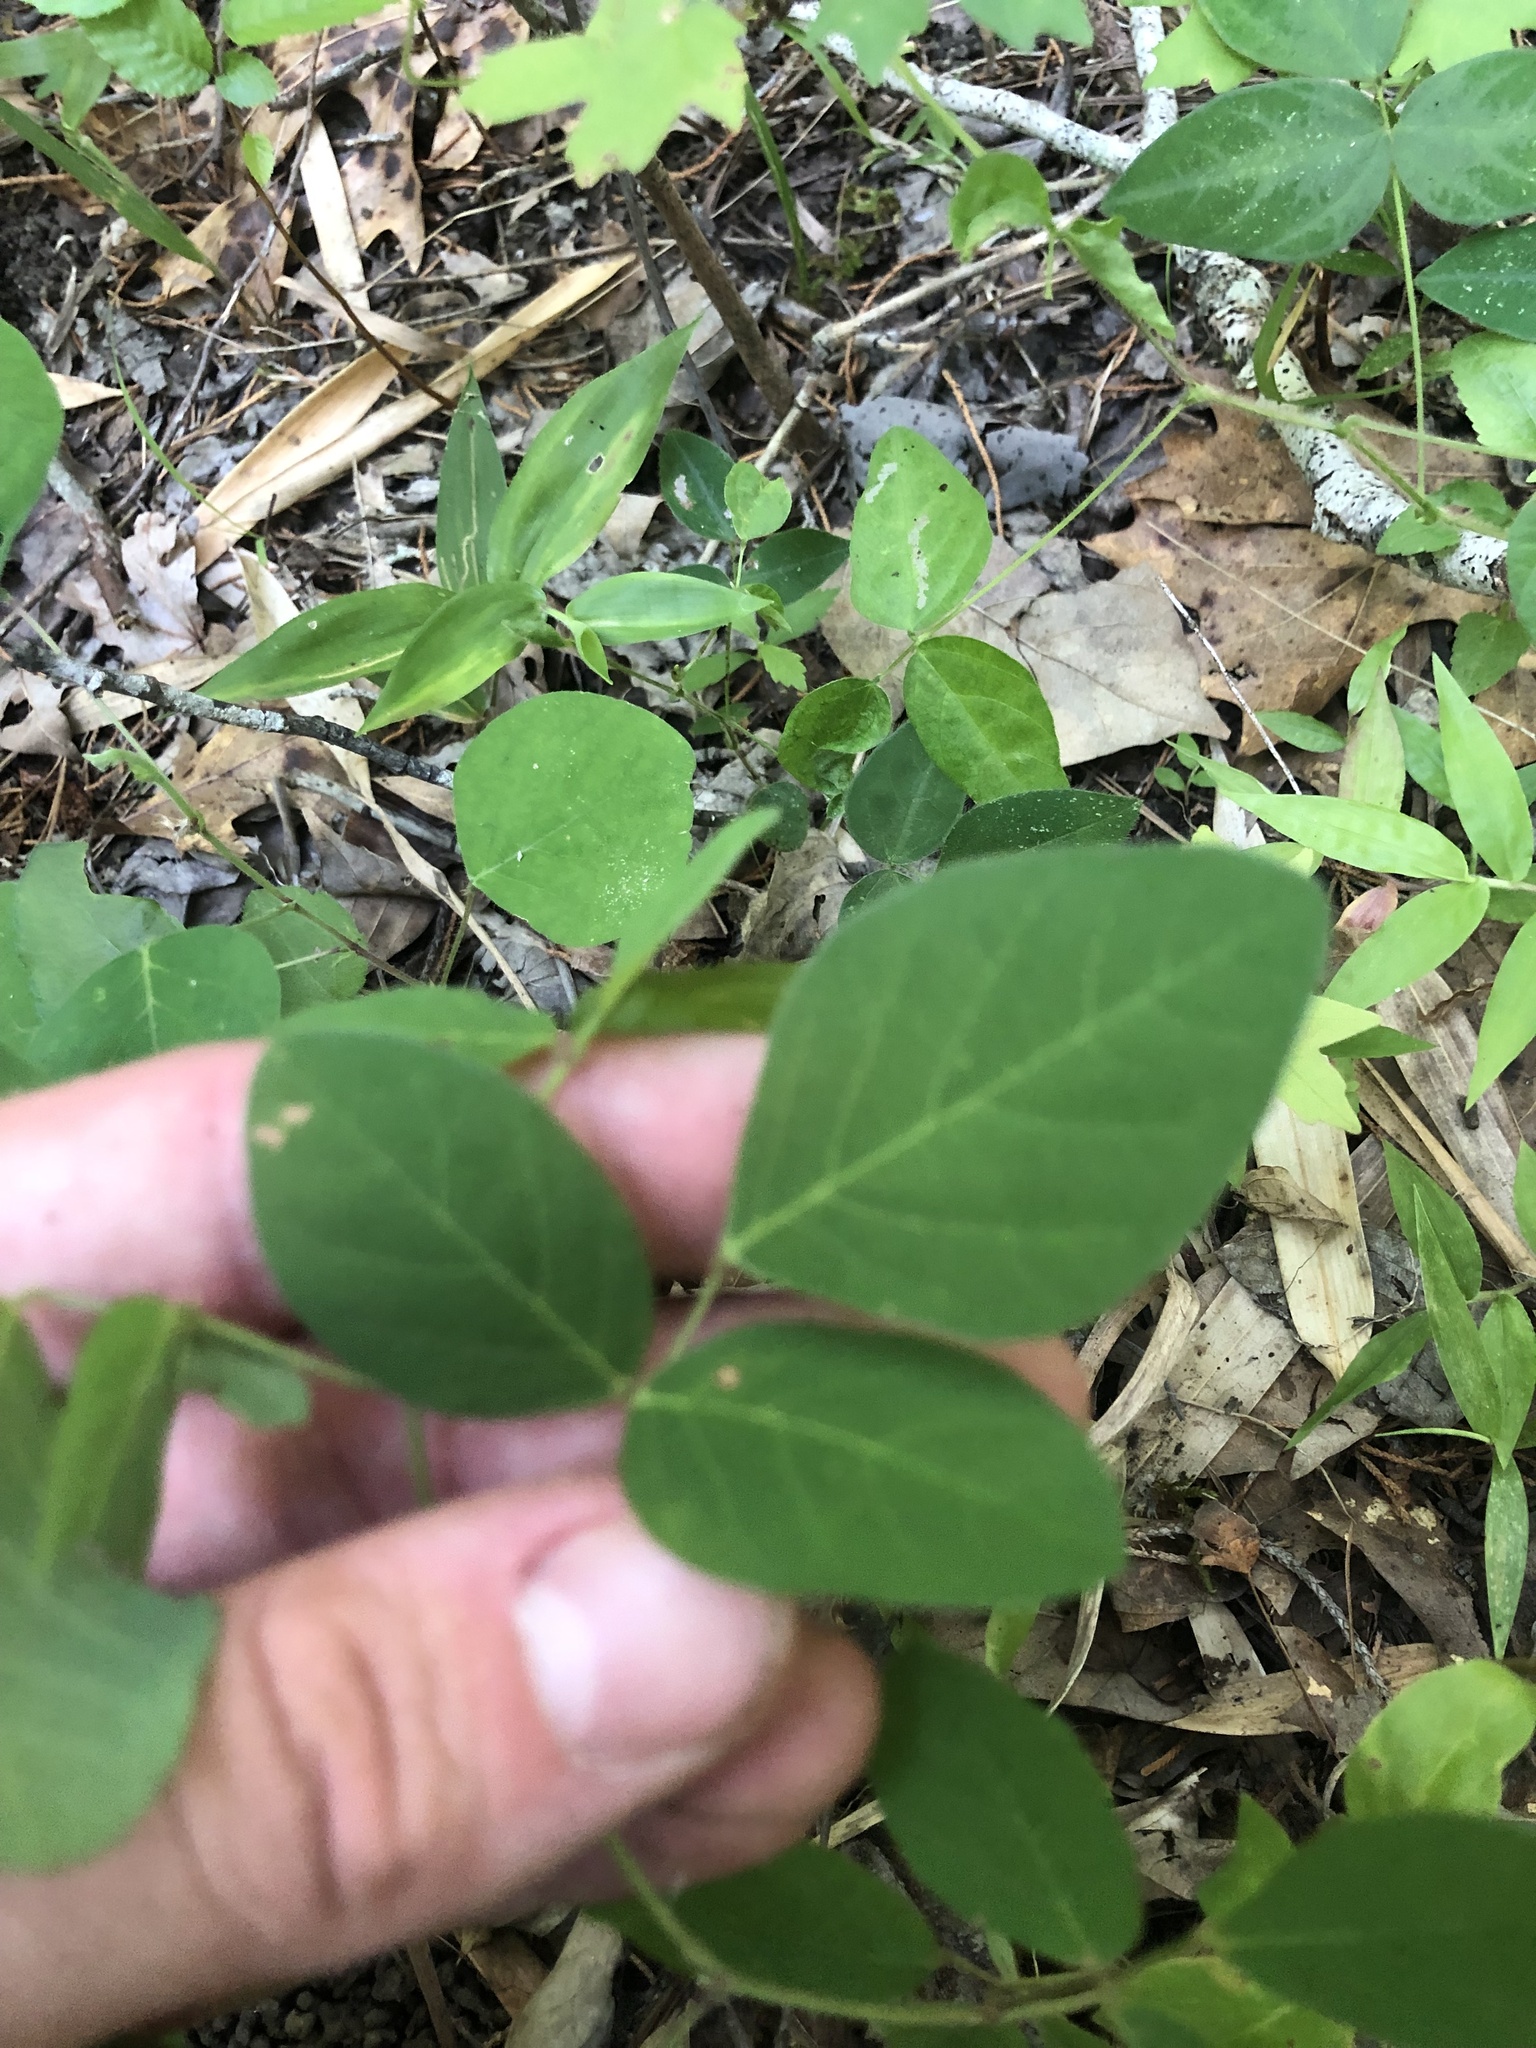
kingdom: Plantae
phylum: Tracheophyta
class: Magnoliopsida
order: Fabales
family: Fabaceae
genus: Desmodium
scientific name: Desmodium perplexum
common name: Perplexed tick trefoil
